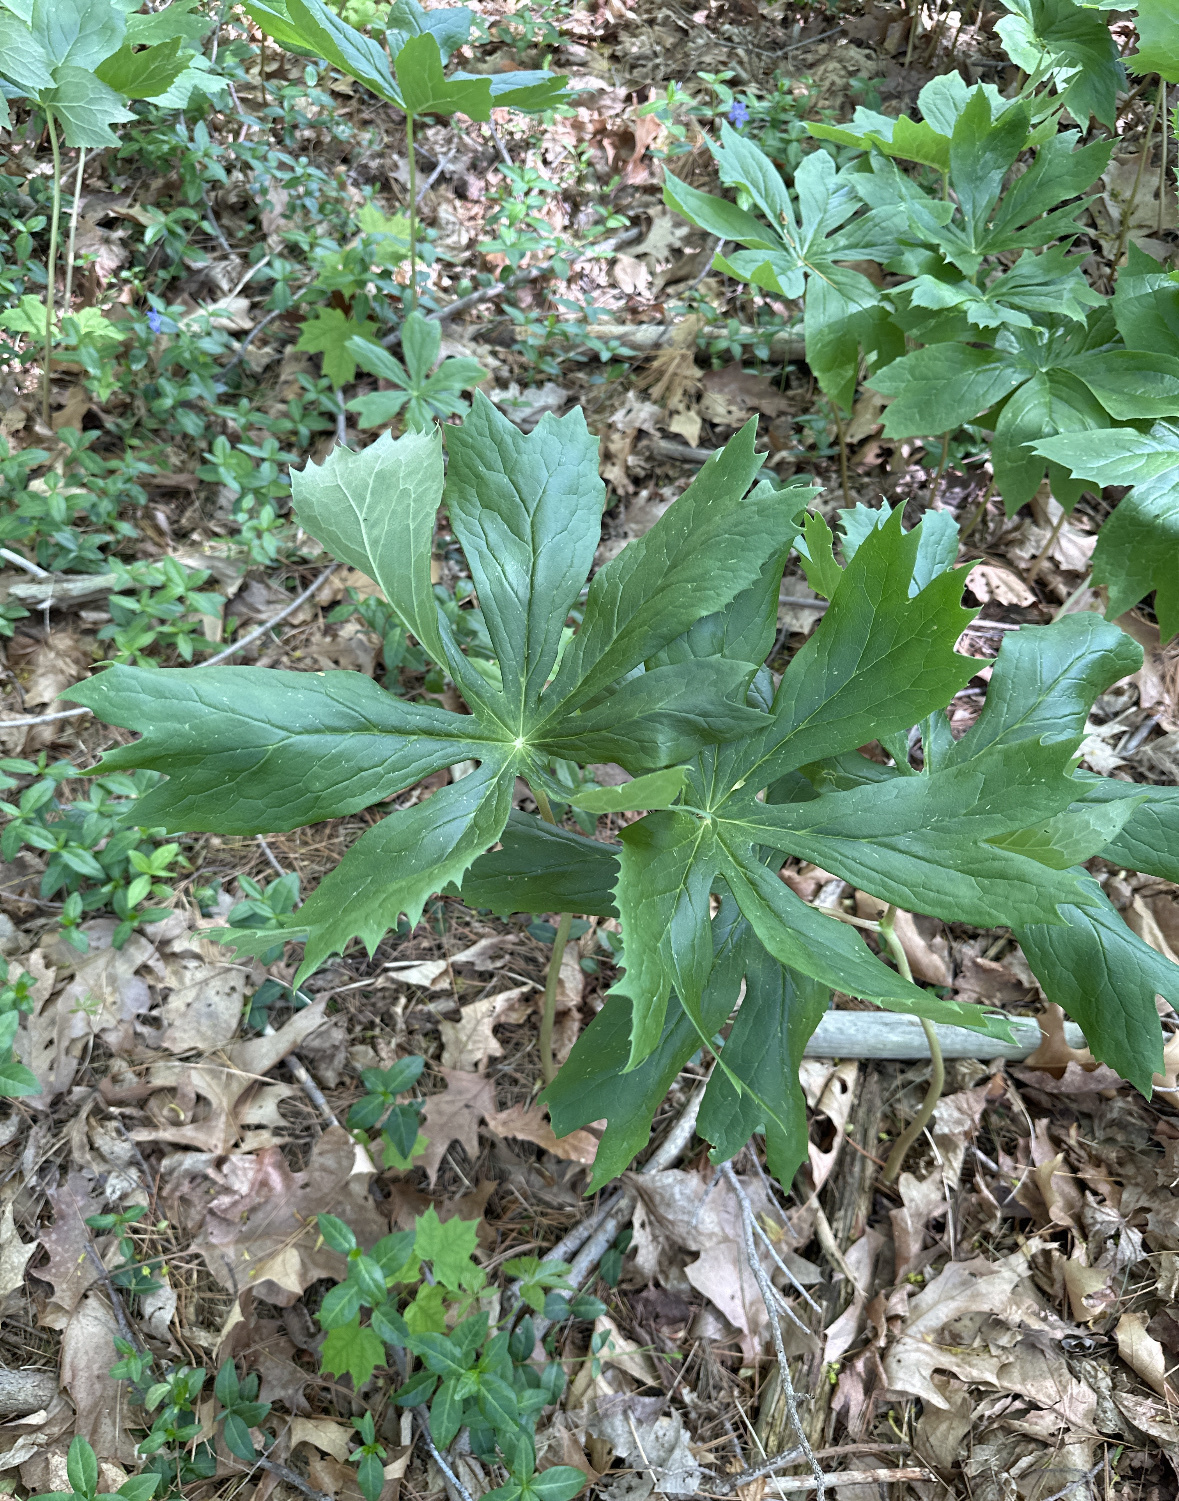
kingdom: Plantae
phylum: Tracheophyta
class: Magnoliopsida
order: Ranunculales
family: Berberidaceae
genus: Podophyllum
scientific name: Podophyllum peltatum
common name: Wild mandrake
